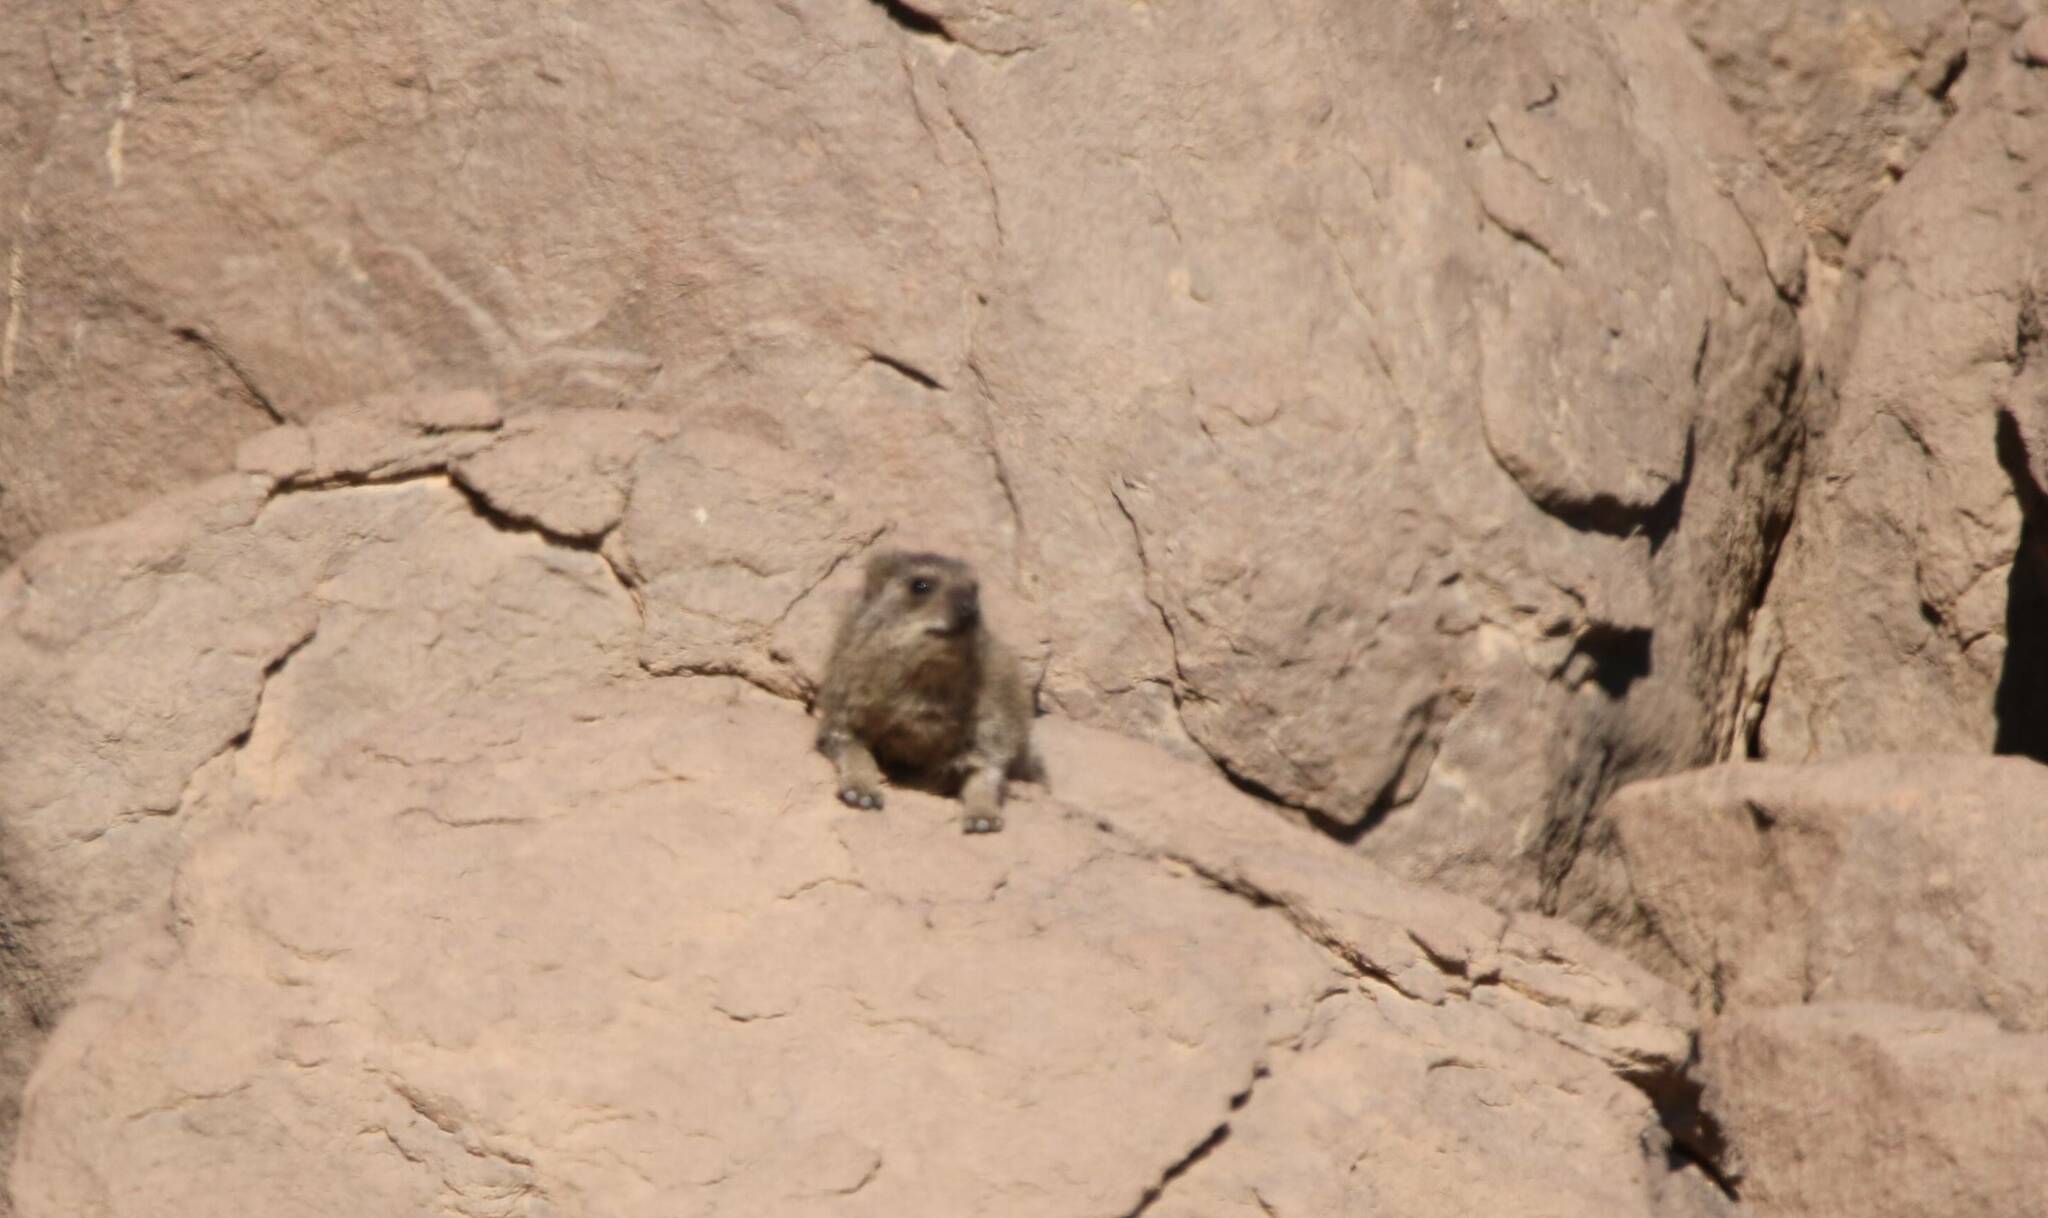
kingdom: Animalia
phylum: Chordata
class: Mammalia
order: Hyracoidea
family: Procaviidae
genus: Procavia
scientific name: Procavia capensis
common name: Rock hyrax
